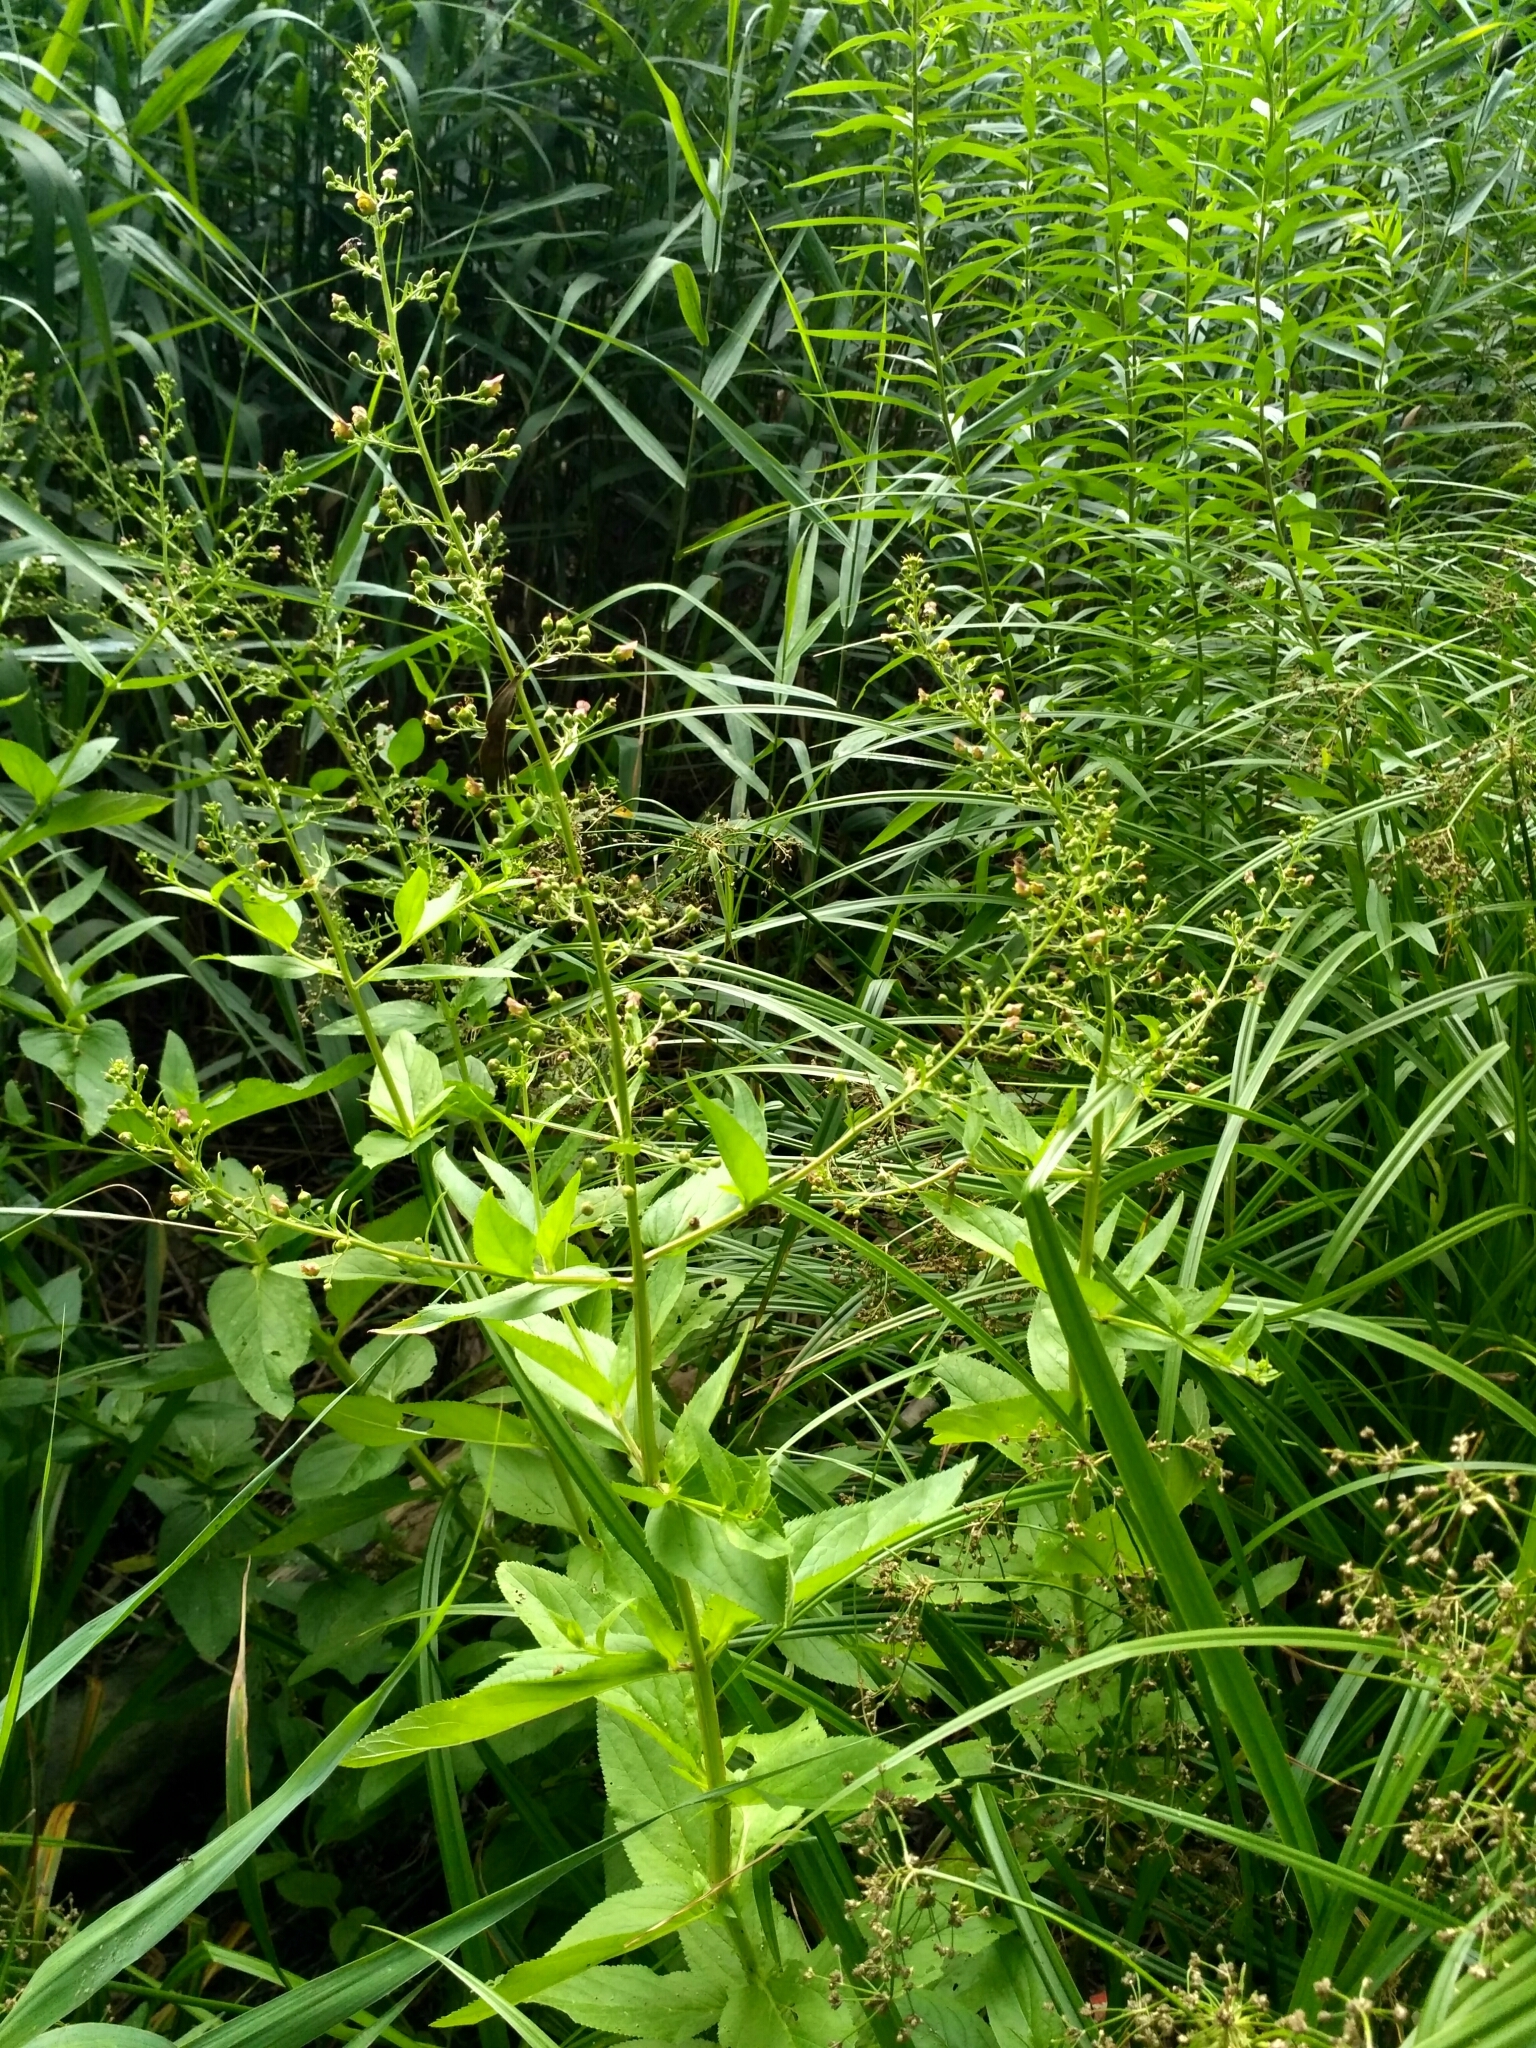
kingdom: Plantae
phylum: Tracheophyta
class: Magnoliopsida
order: Lamiales
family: Scrophulariaceae
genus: Scrophularia
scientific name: Scrophularia umbrosa
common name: Green figwort
